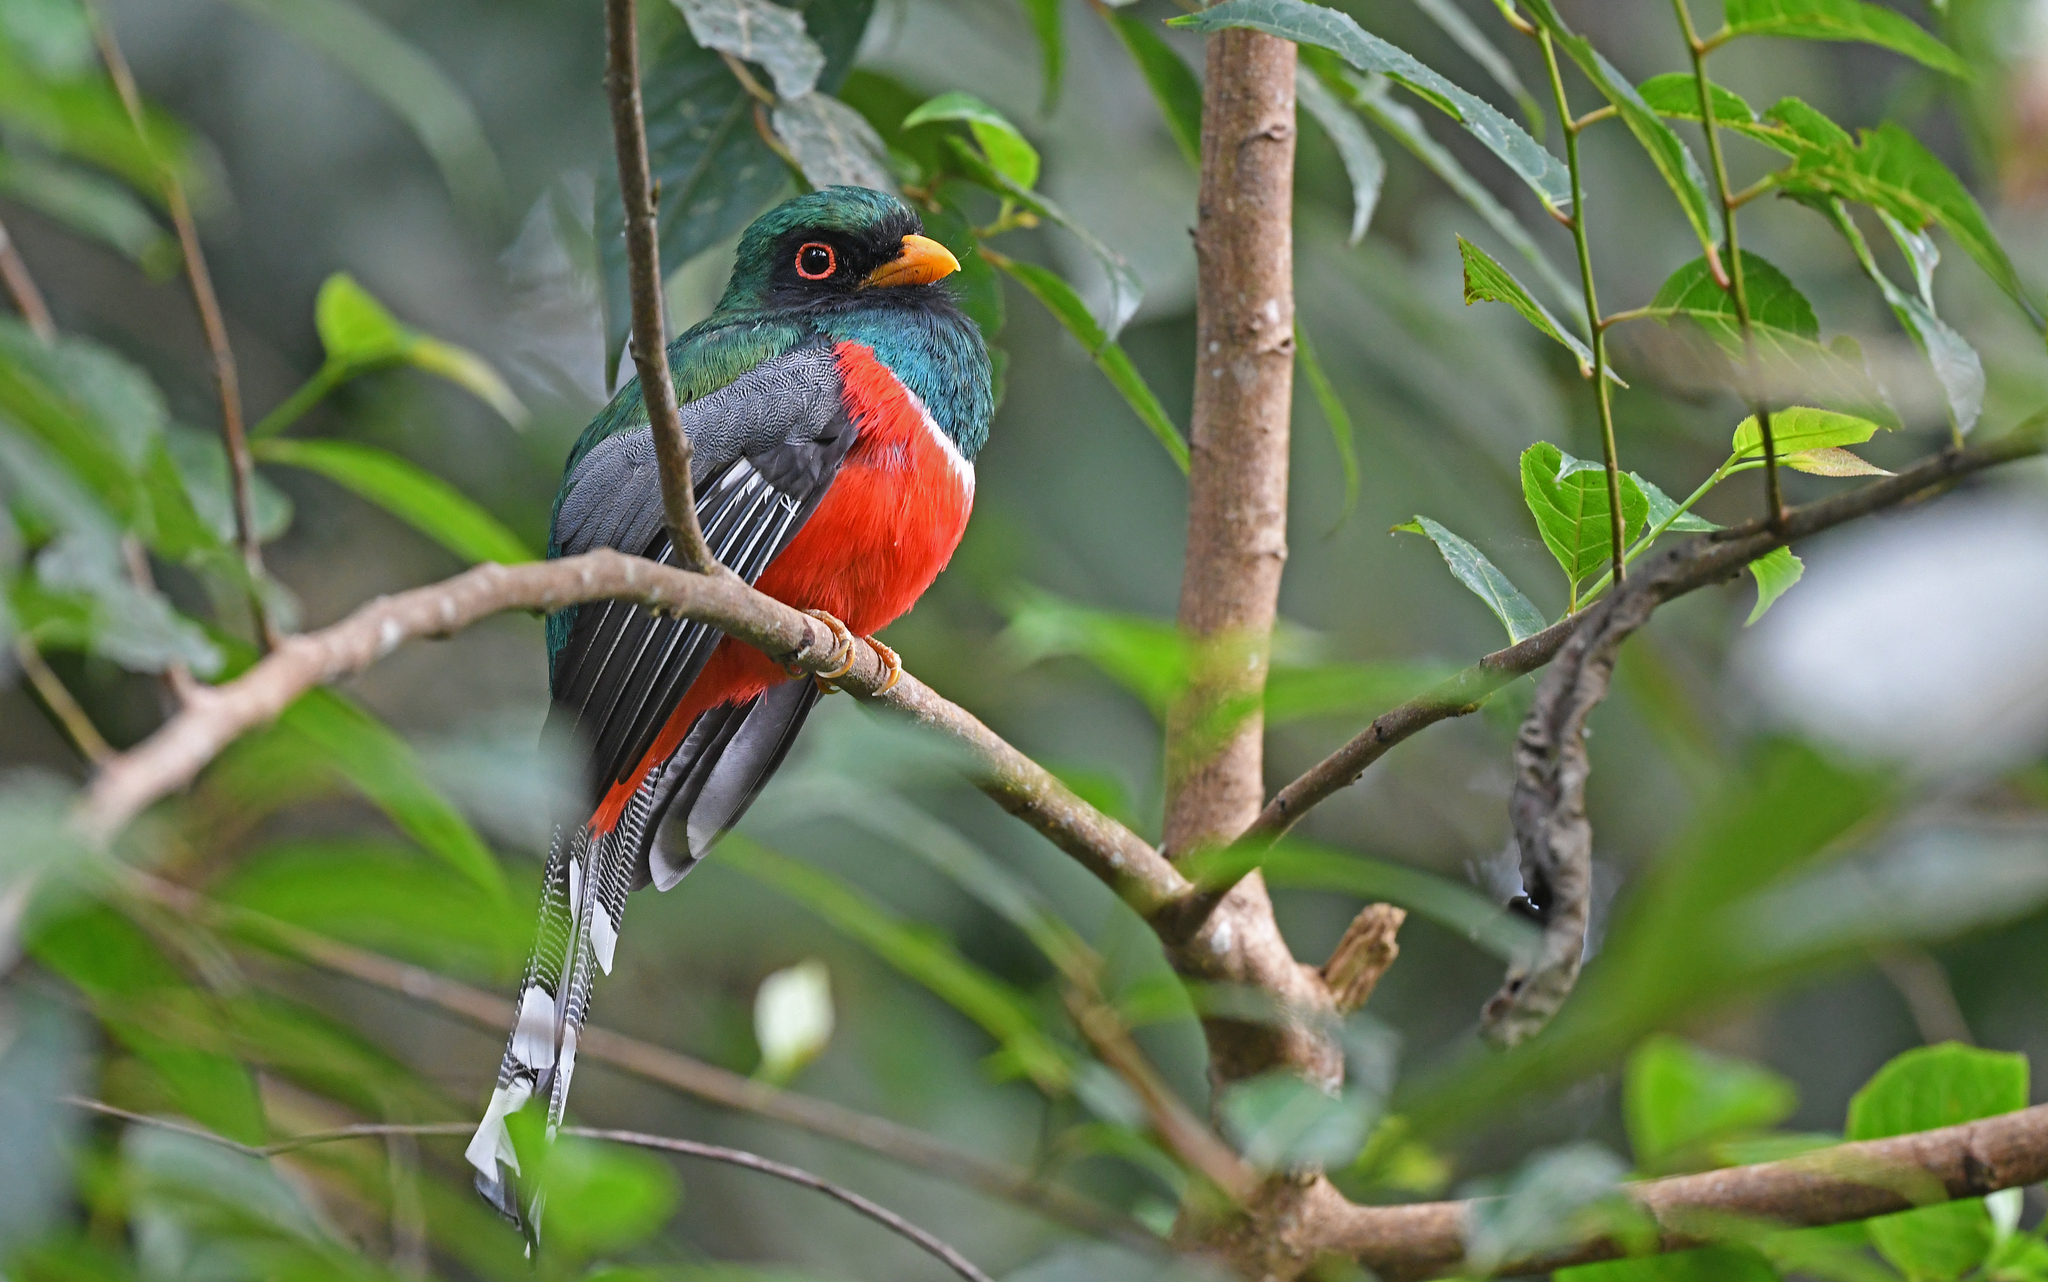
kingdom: Animalia
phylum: Chordata
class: Aves
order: Trogoniformes
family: Trogonidae
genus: Trogon
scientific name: Trogon personatus
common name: Masked trogon
